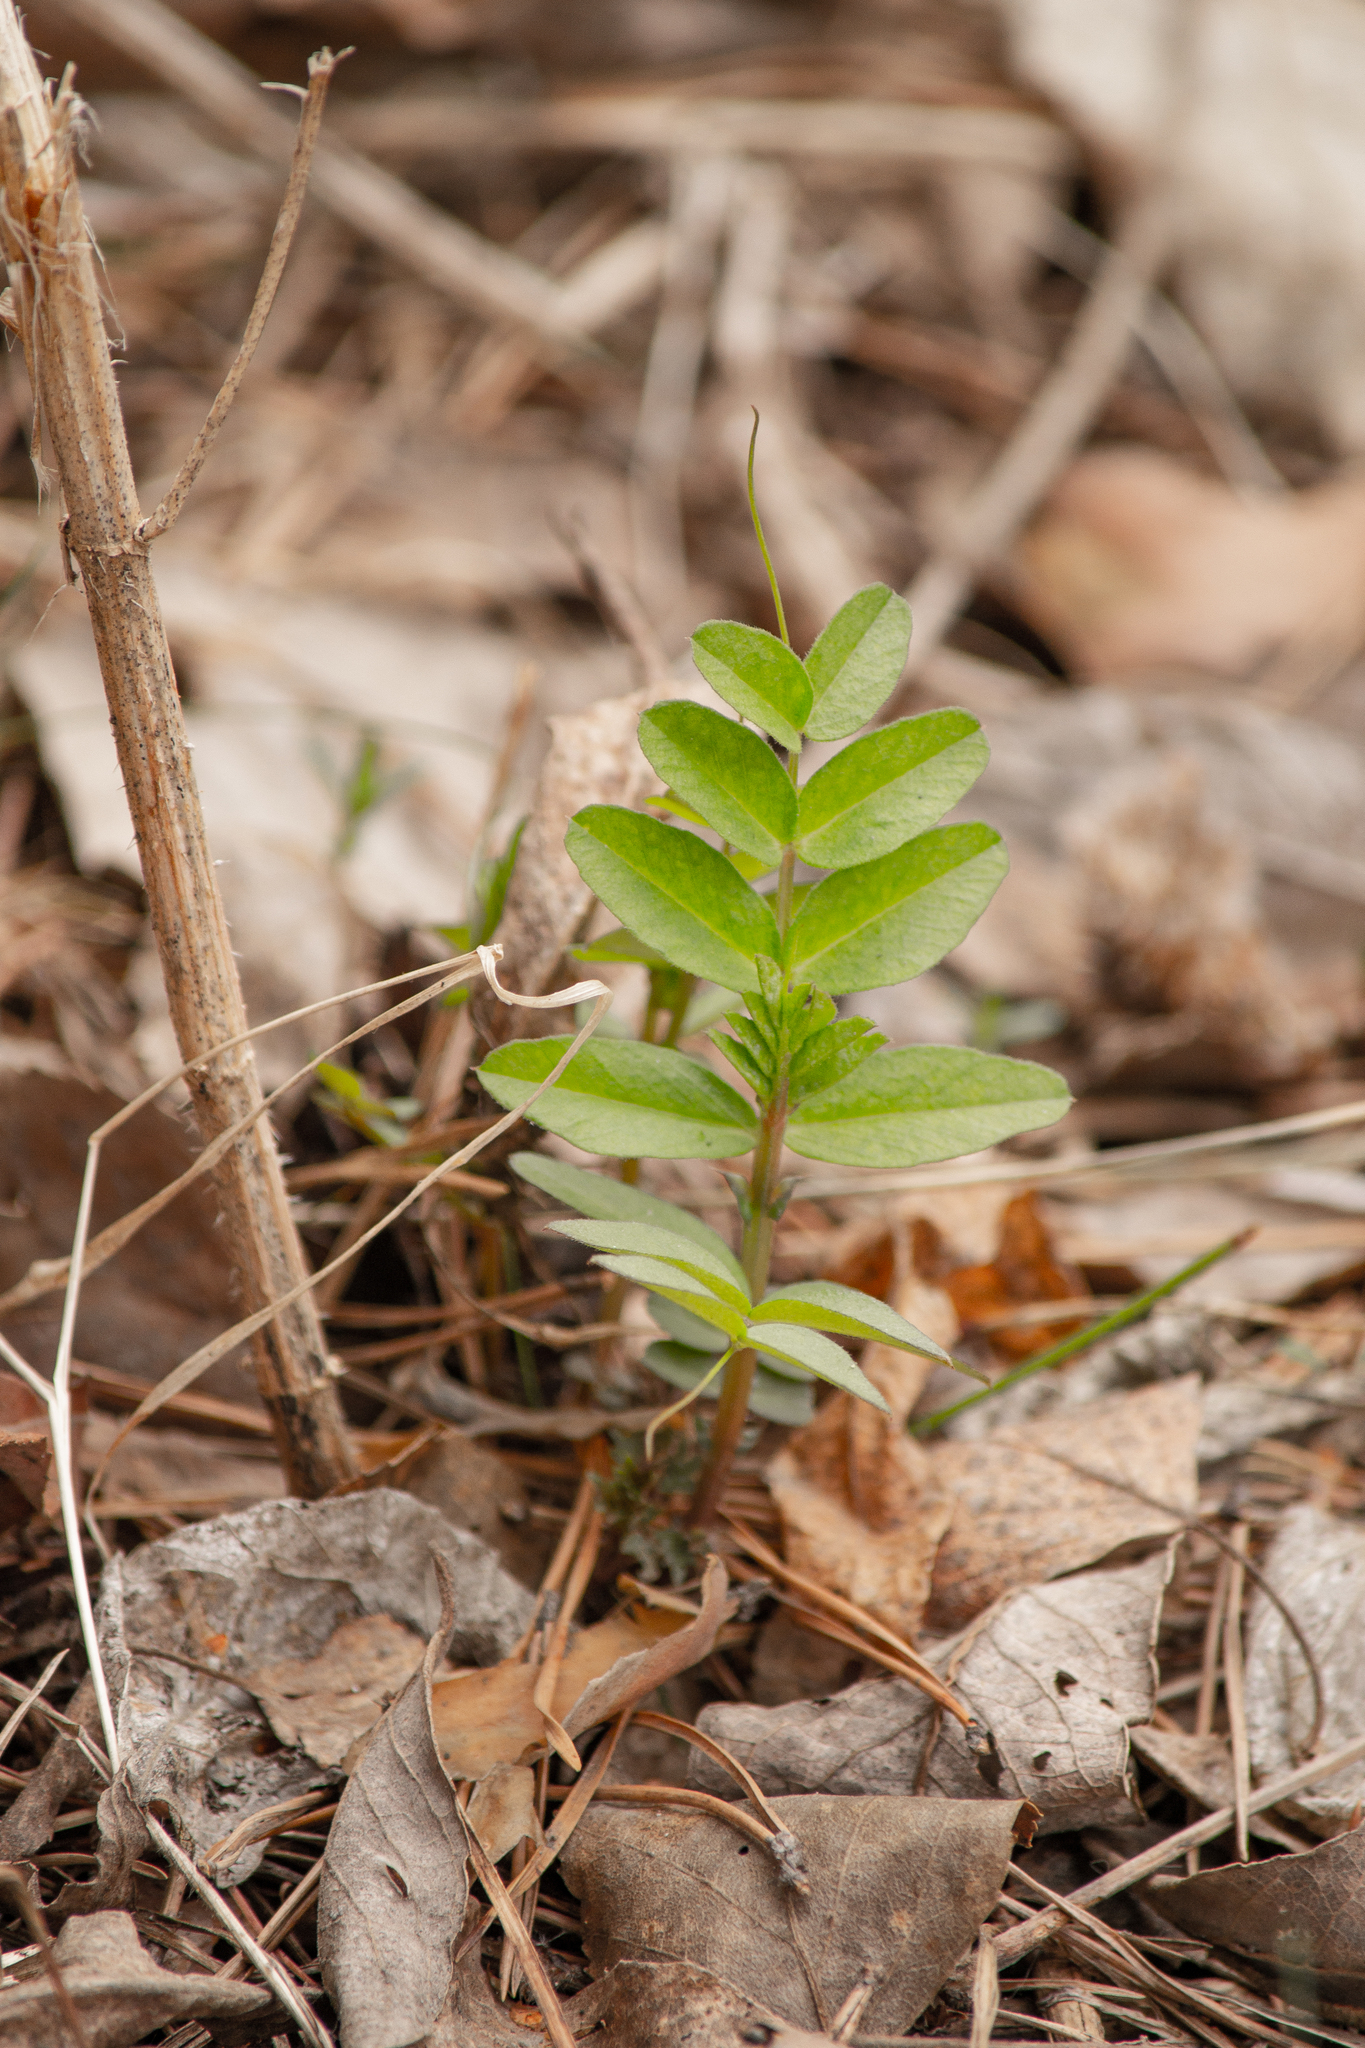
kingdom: Plantae
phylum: Tracheophyta
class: Magnoliopsida
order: Fabales
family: Fabaceae
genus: Vicia
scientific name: Vicia sepium
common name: Bush vetch
